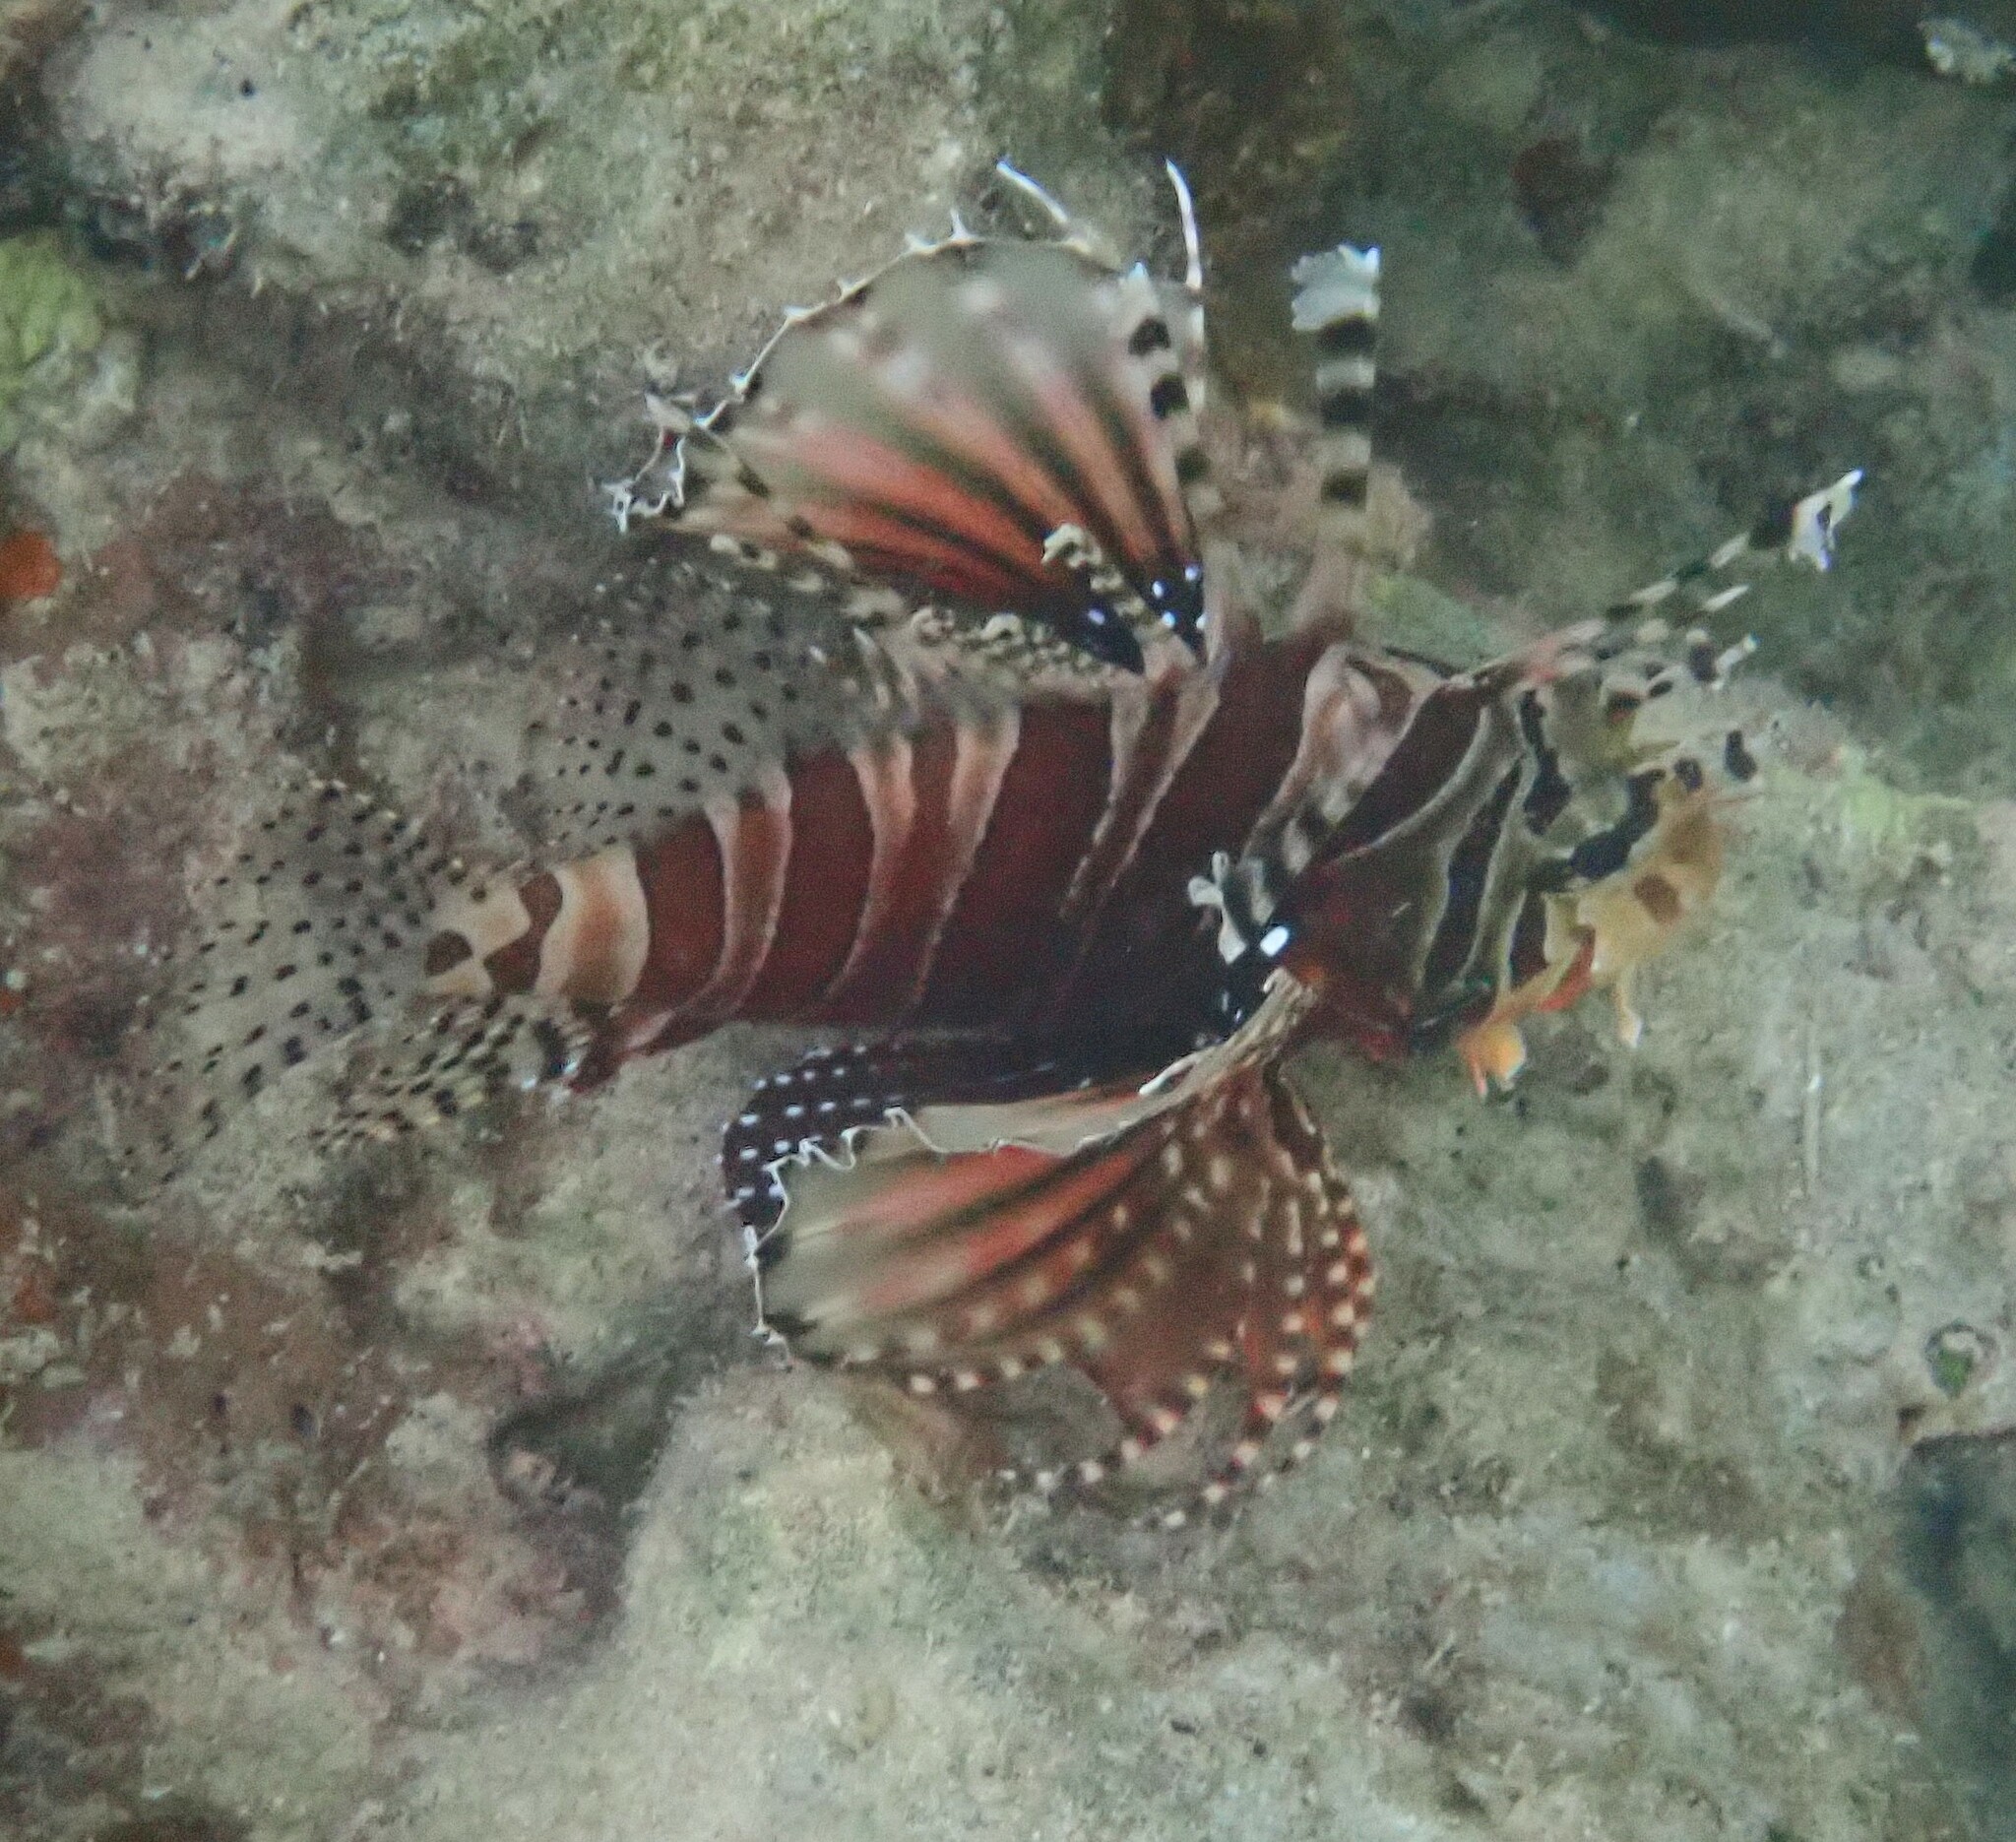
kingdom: Animalia
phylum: Chordata
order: Scorpaeniformes
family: Scorpaenidae
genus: Dendrochirus
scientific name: Dendrochirus zebra
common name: Zebra lionfish
